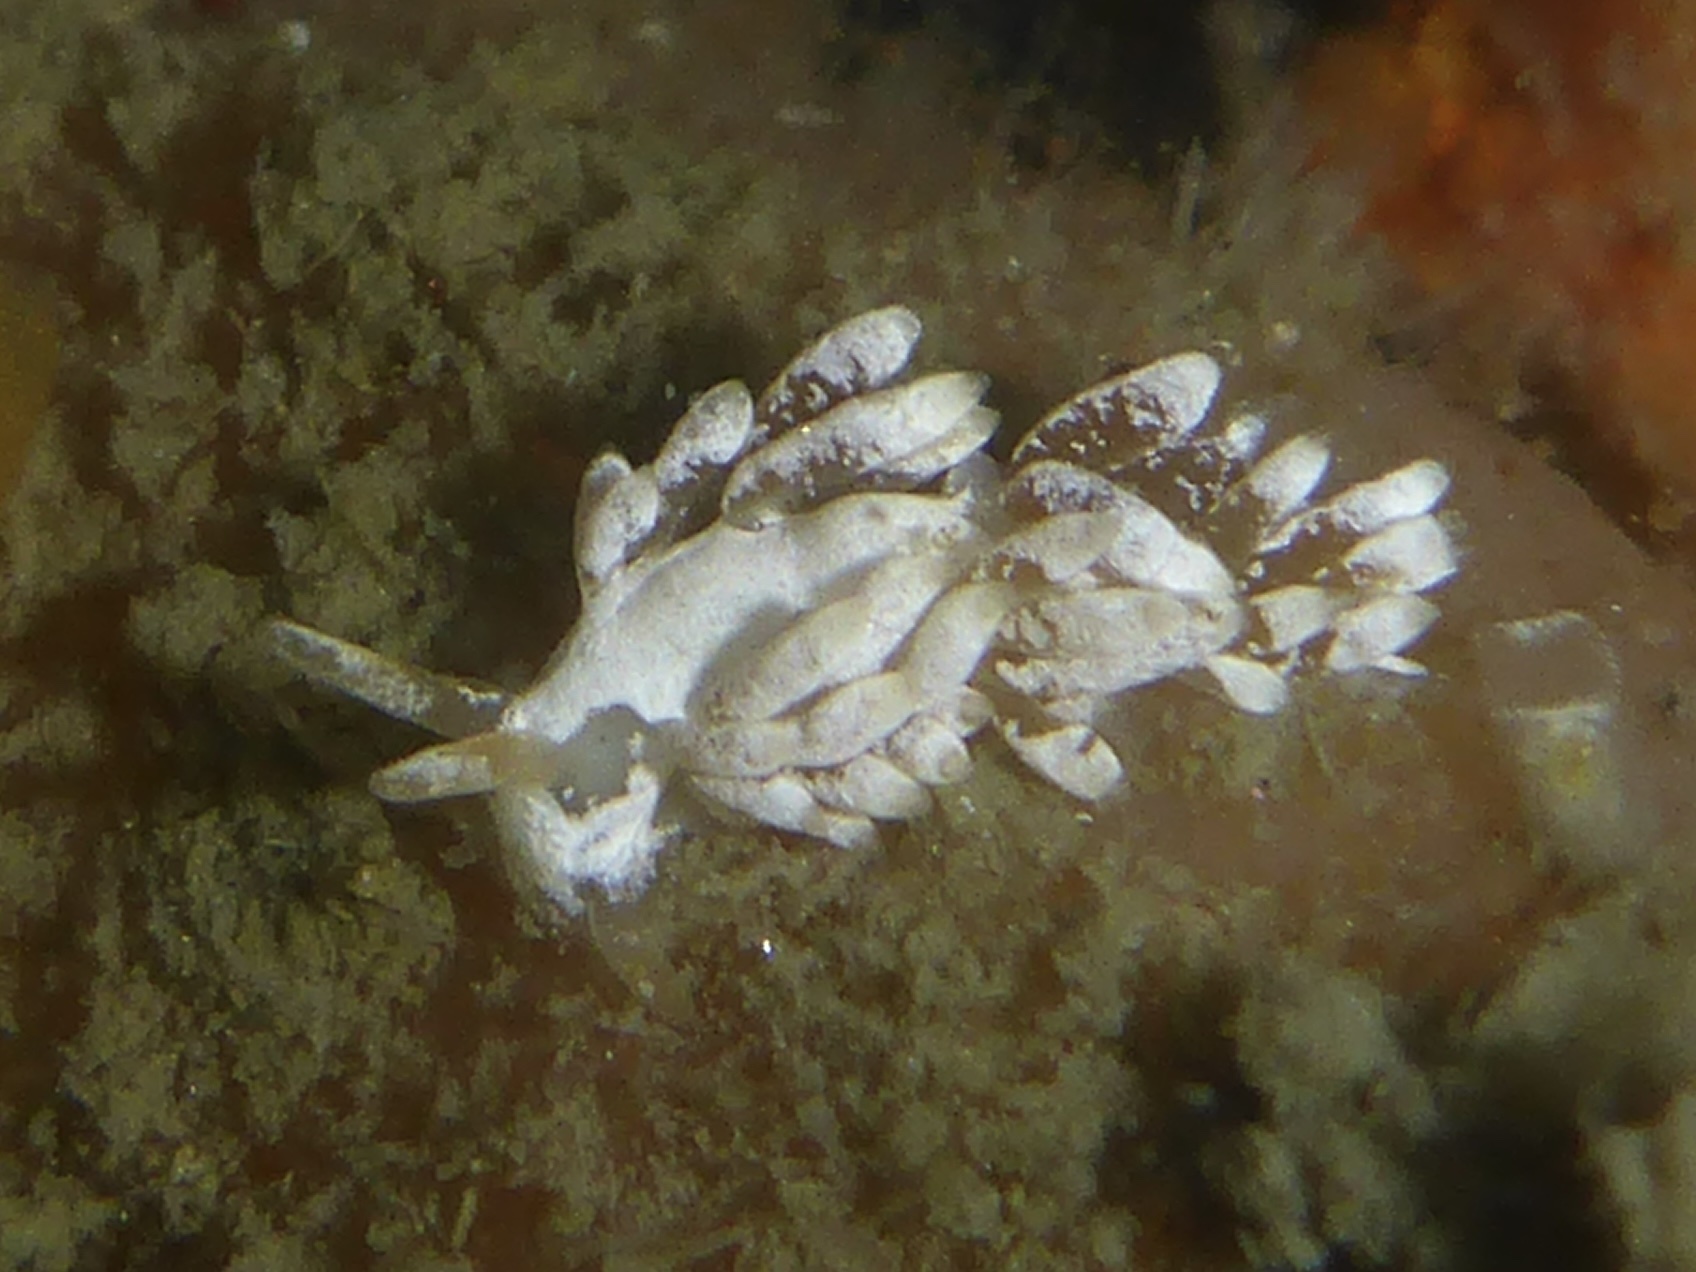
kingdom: Animalia
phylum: Mollusca
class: Gastropoda
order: Nudibranchia
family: Trinchesiidae
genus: Trinchesia
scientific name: Trinchesia albocrusta
